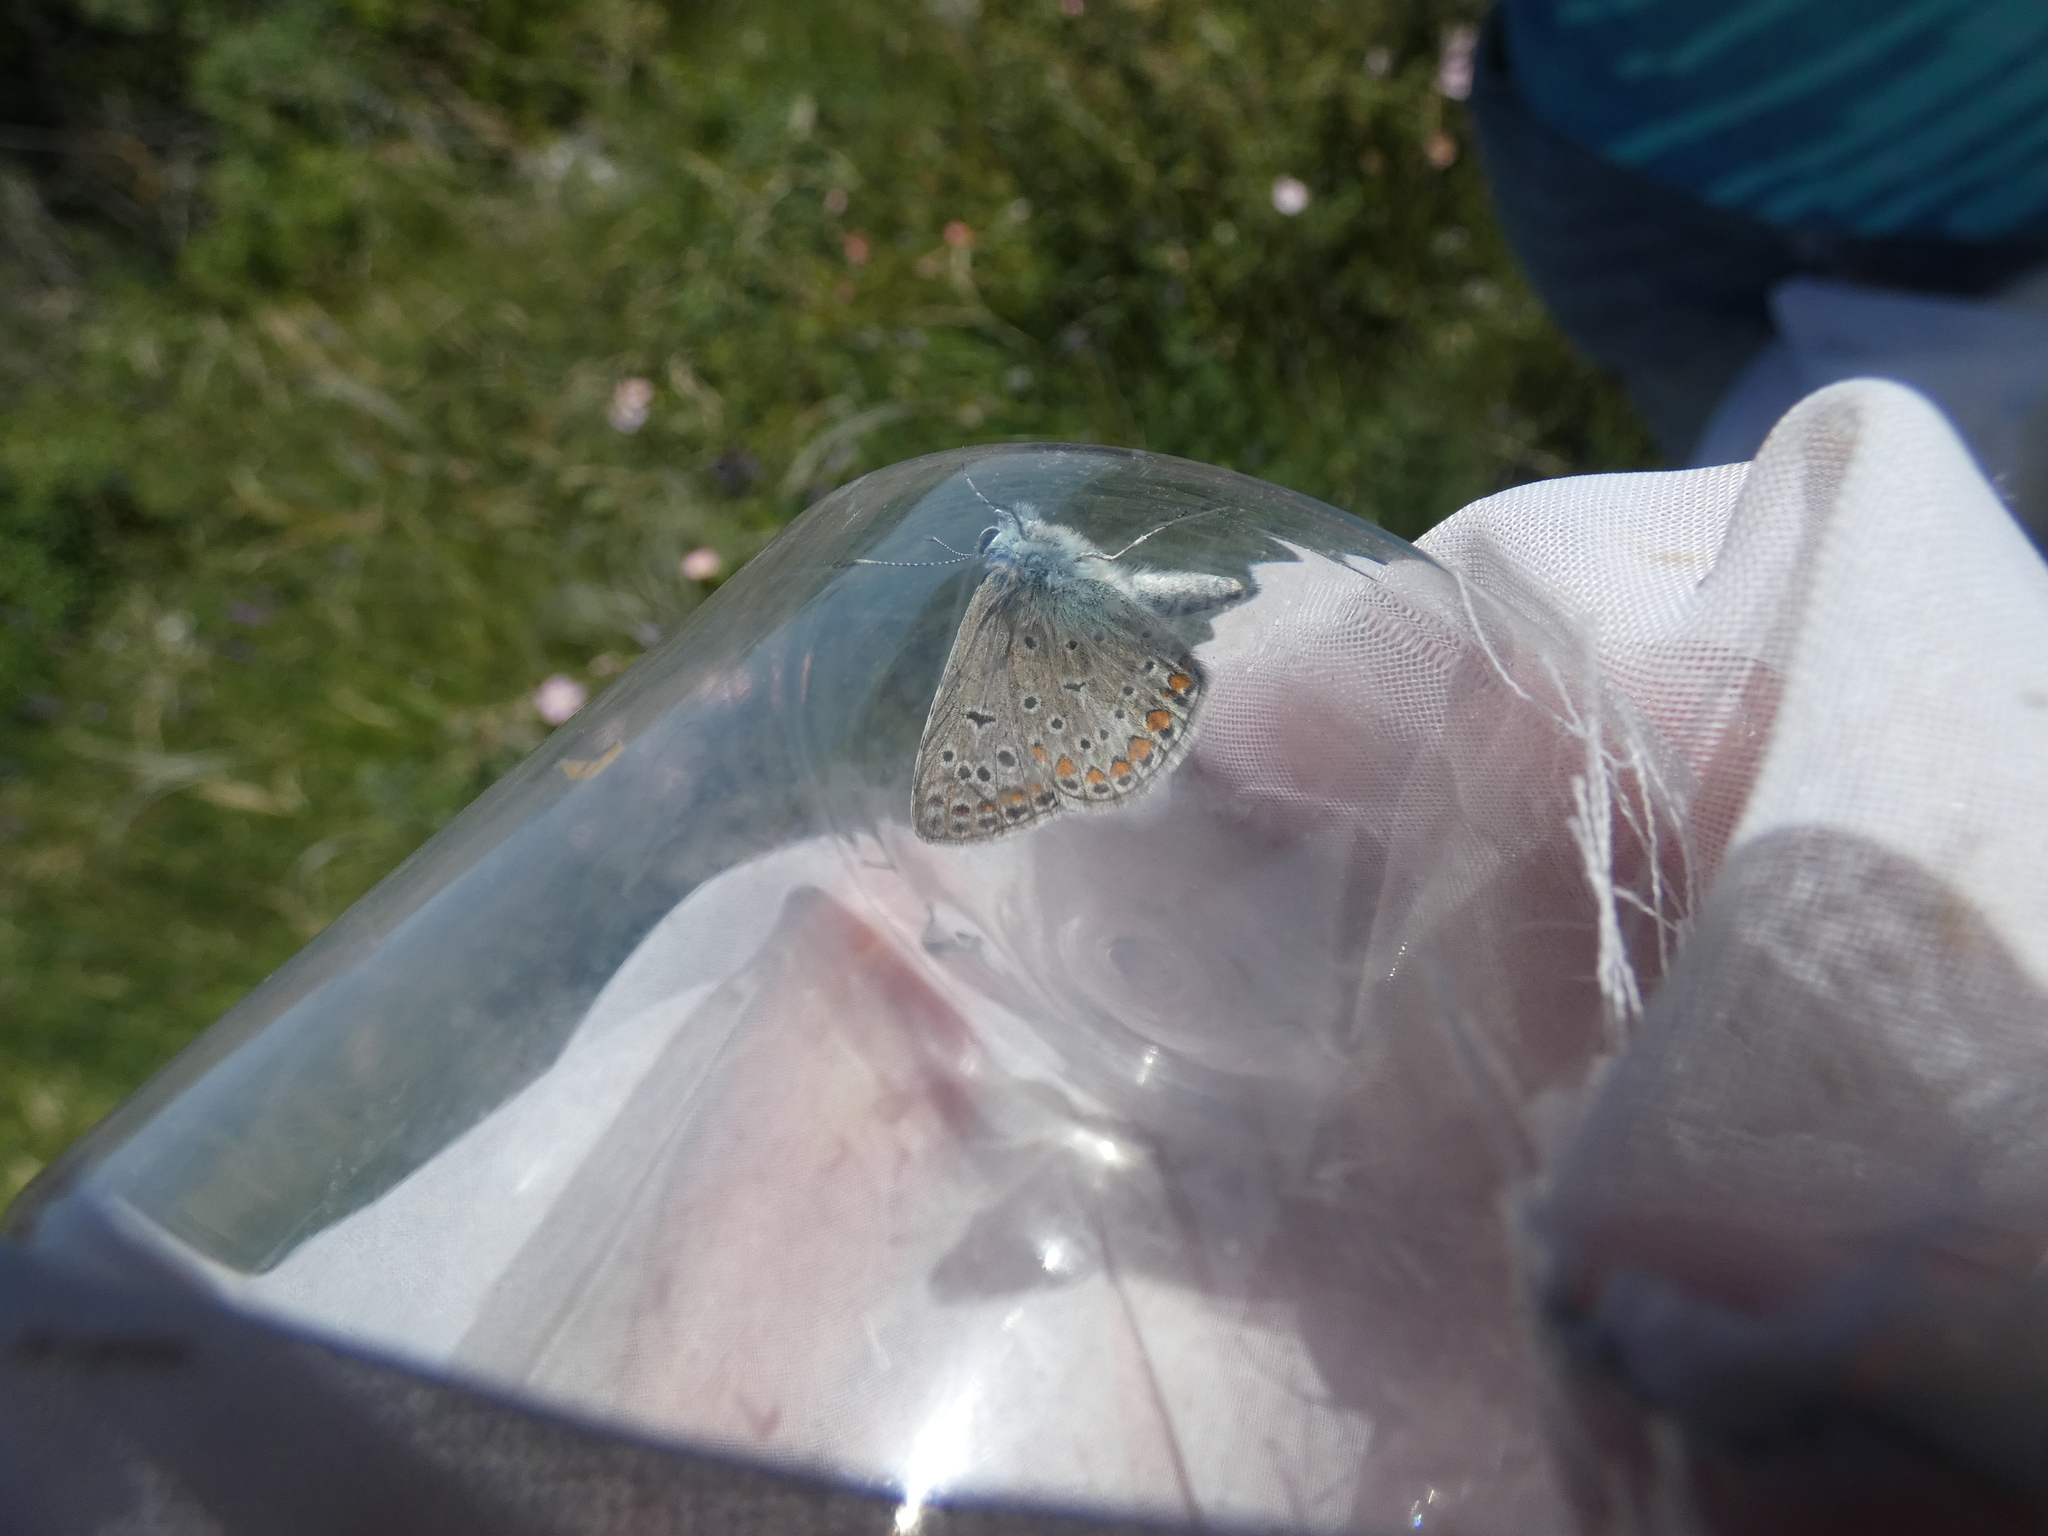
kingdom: Animalia
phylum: Arthropoda
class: Insecta
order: Lepidoptera
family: Lycaenidae
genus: Polyommatus
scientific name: Polyommatus icarus
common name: Common blue
